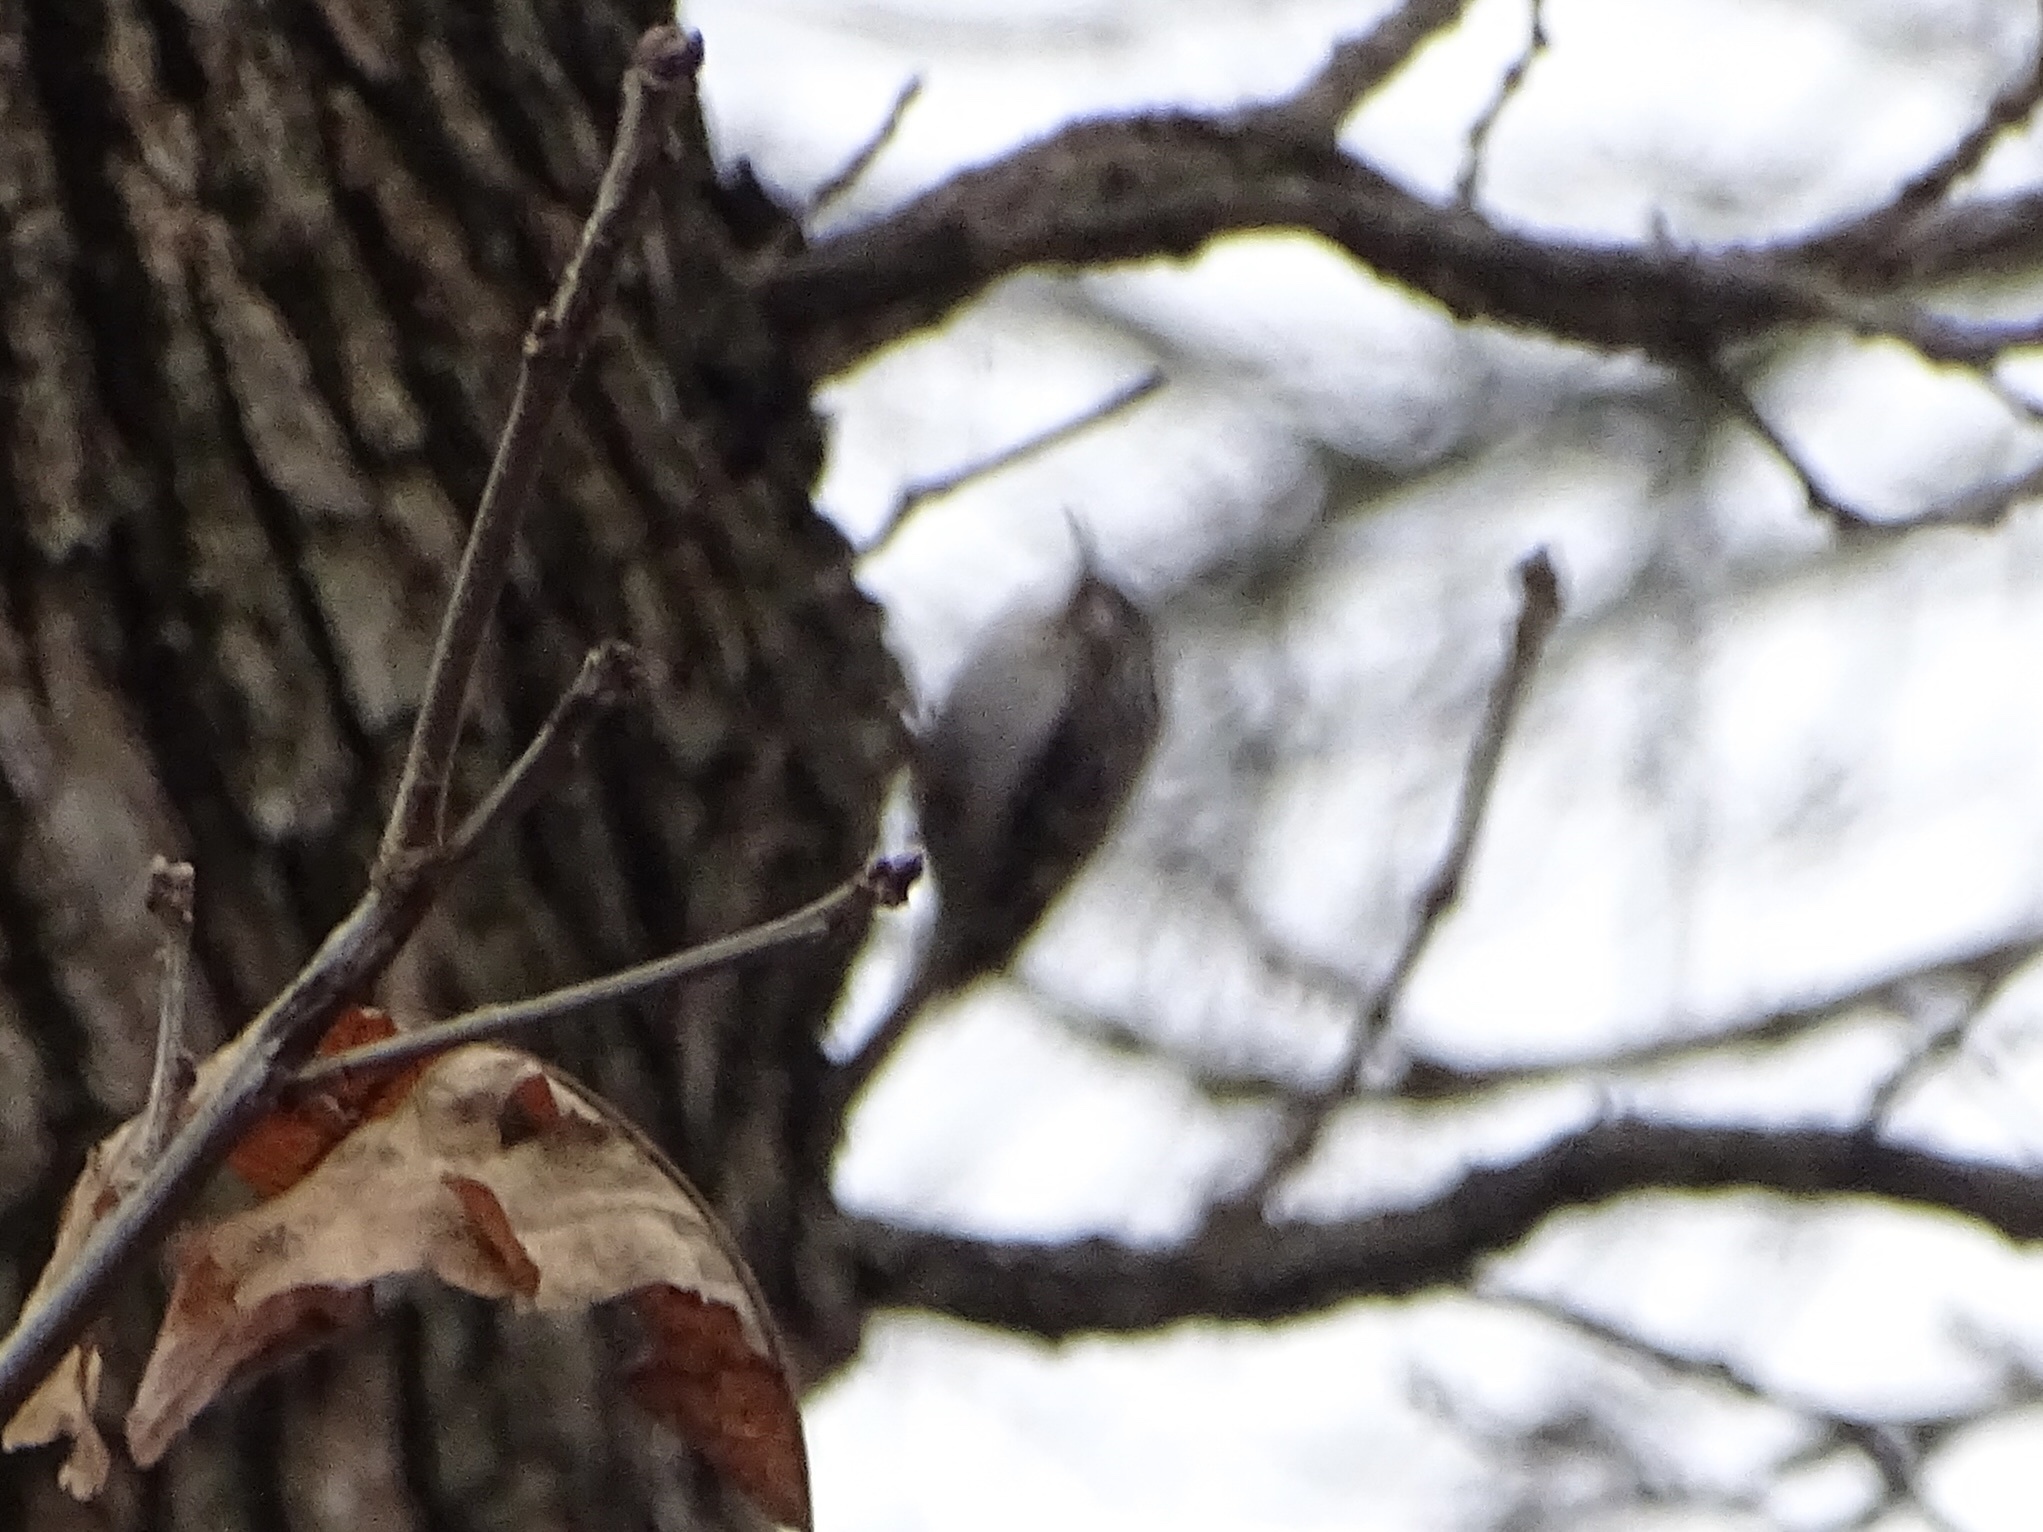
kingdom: Animalia
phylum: Chordata
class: Aves
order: Passeriformes
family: Certhiidae
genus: Certhia
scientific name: Certhia americana
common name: Brown creeper
